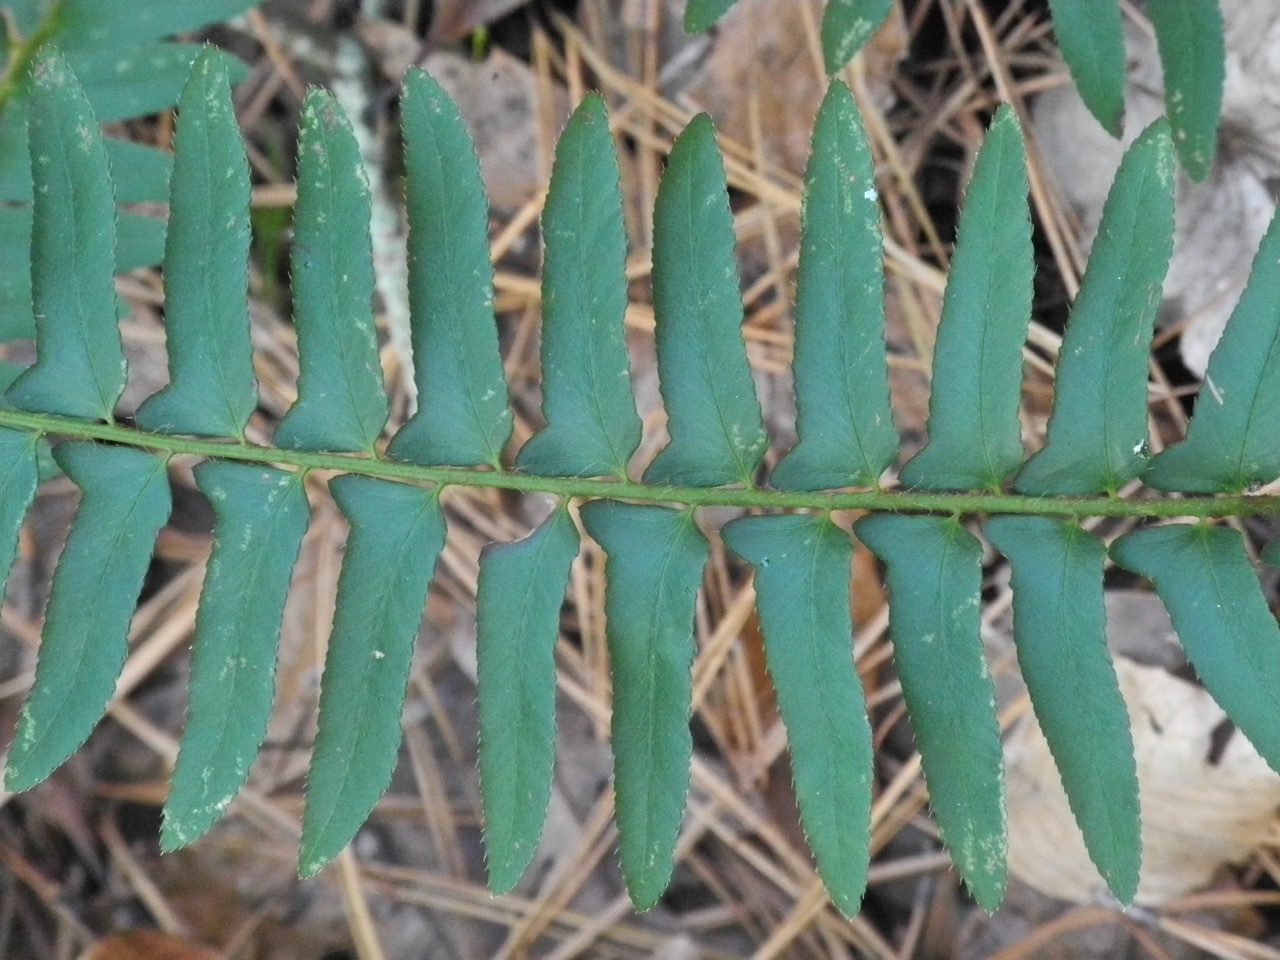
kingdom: Plantae
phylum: Tracheophyta
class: Polypodiopsida
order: Polypodiales
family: Dryopteridaceae
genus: Polystichum
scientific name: Polystichum acrostichoides
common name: Christmas fern
